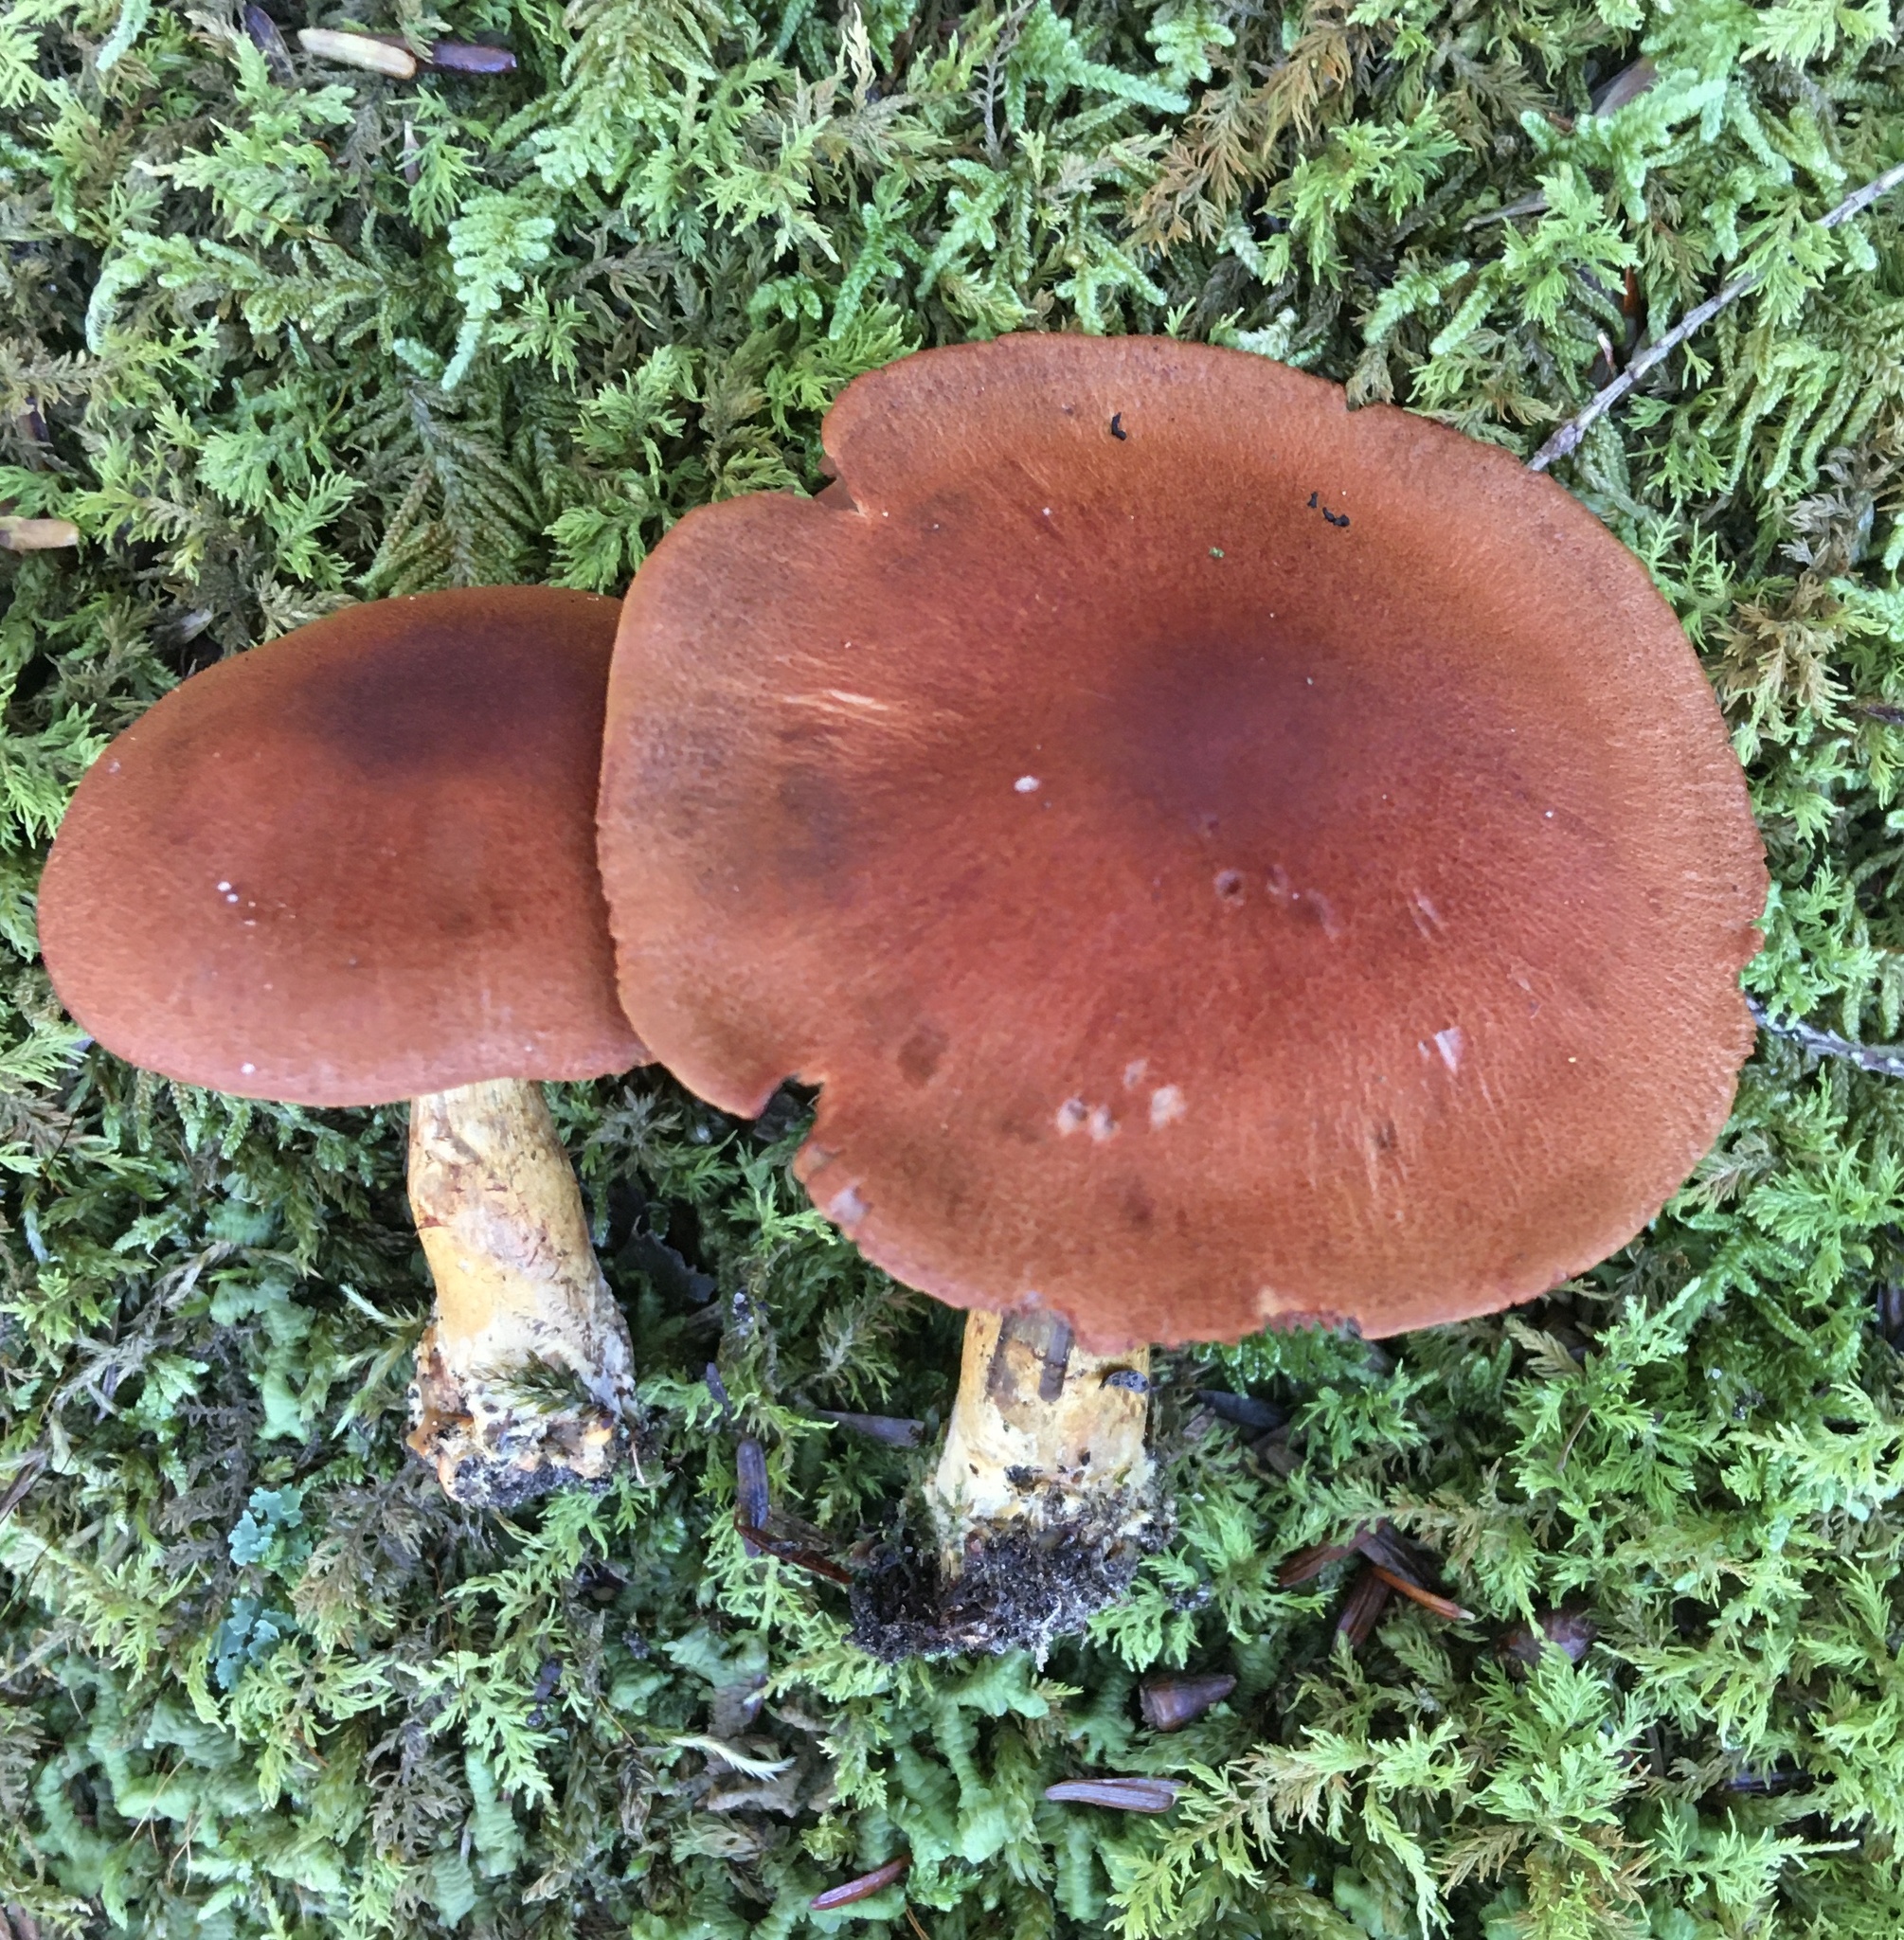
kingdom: Fungi
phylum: Basidiomycota
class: Agaricomycetes
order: Agaricales
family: Cortinariaceae
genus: Cortinarius
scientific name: Cortinarius purpureus
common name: Imperial webcap
